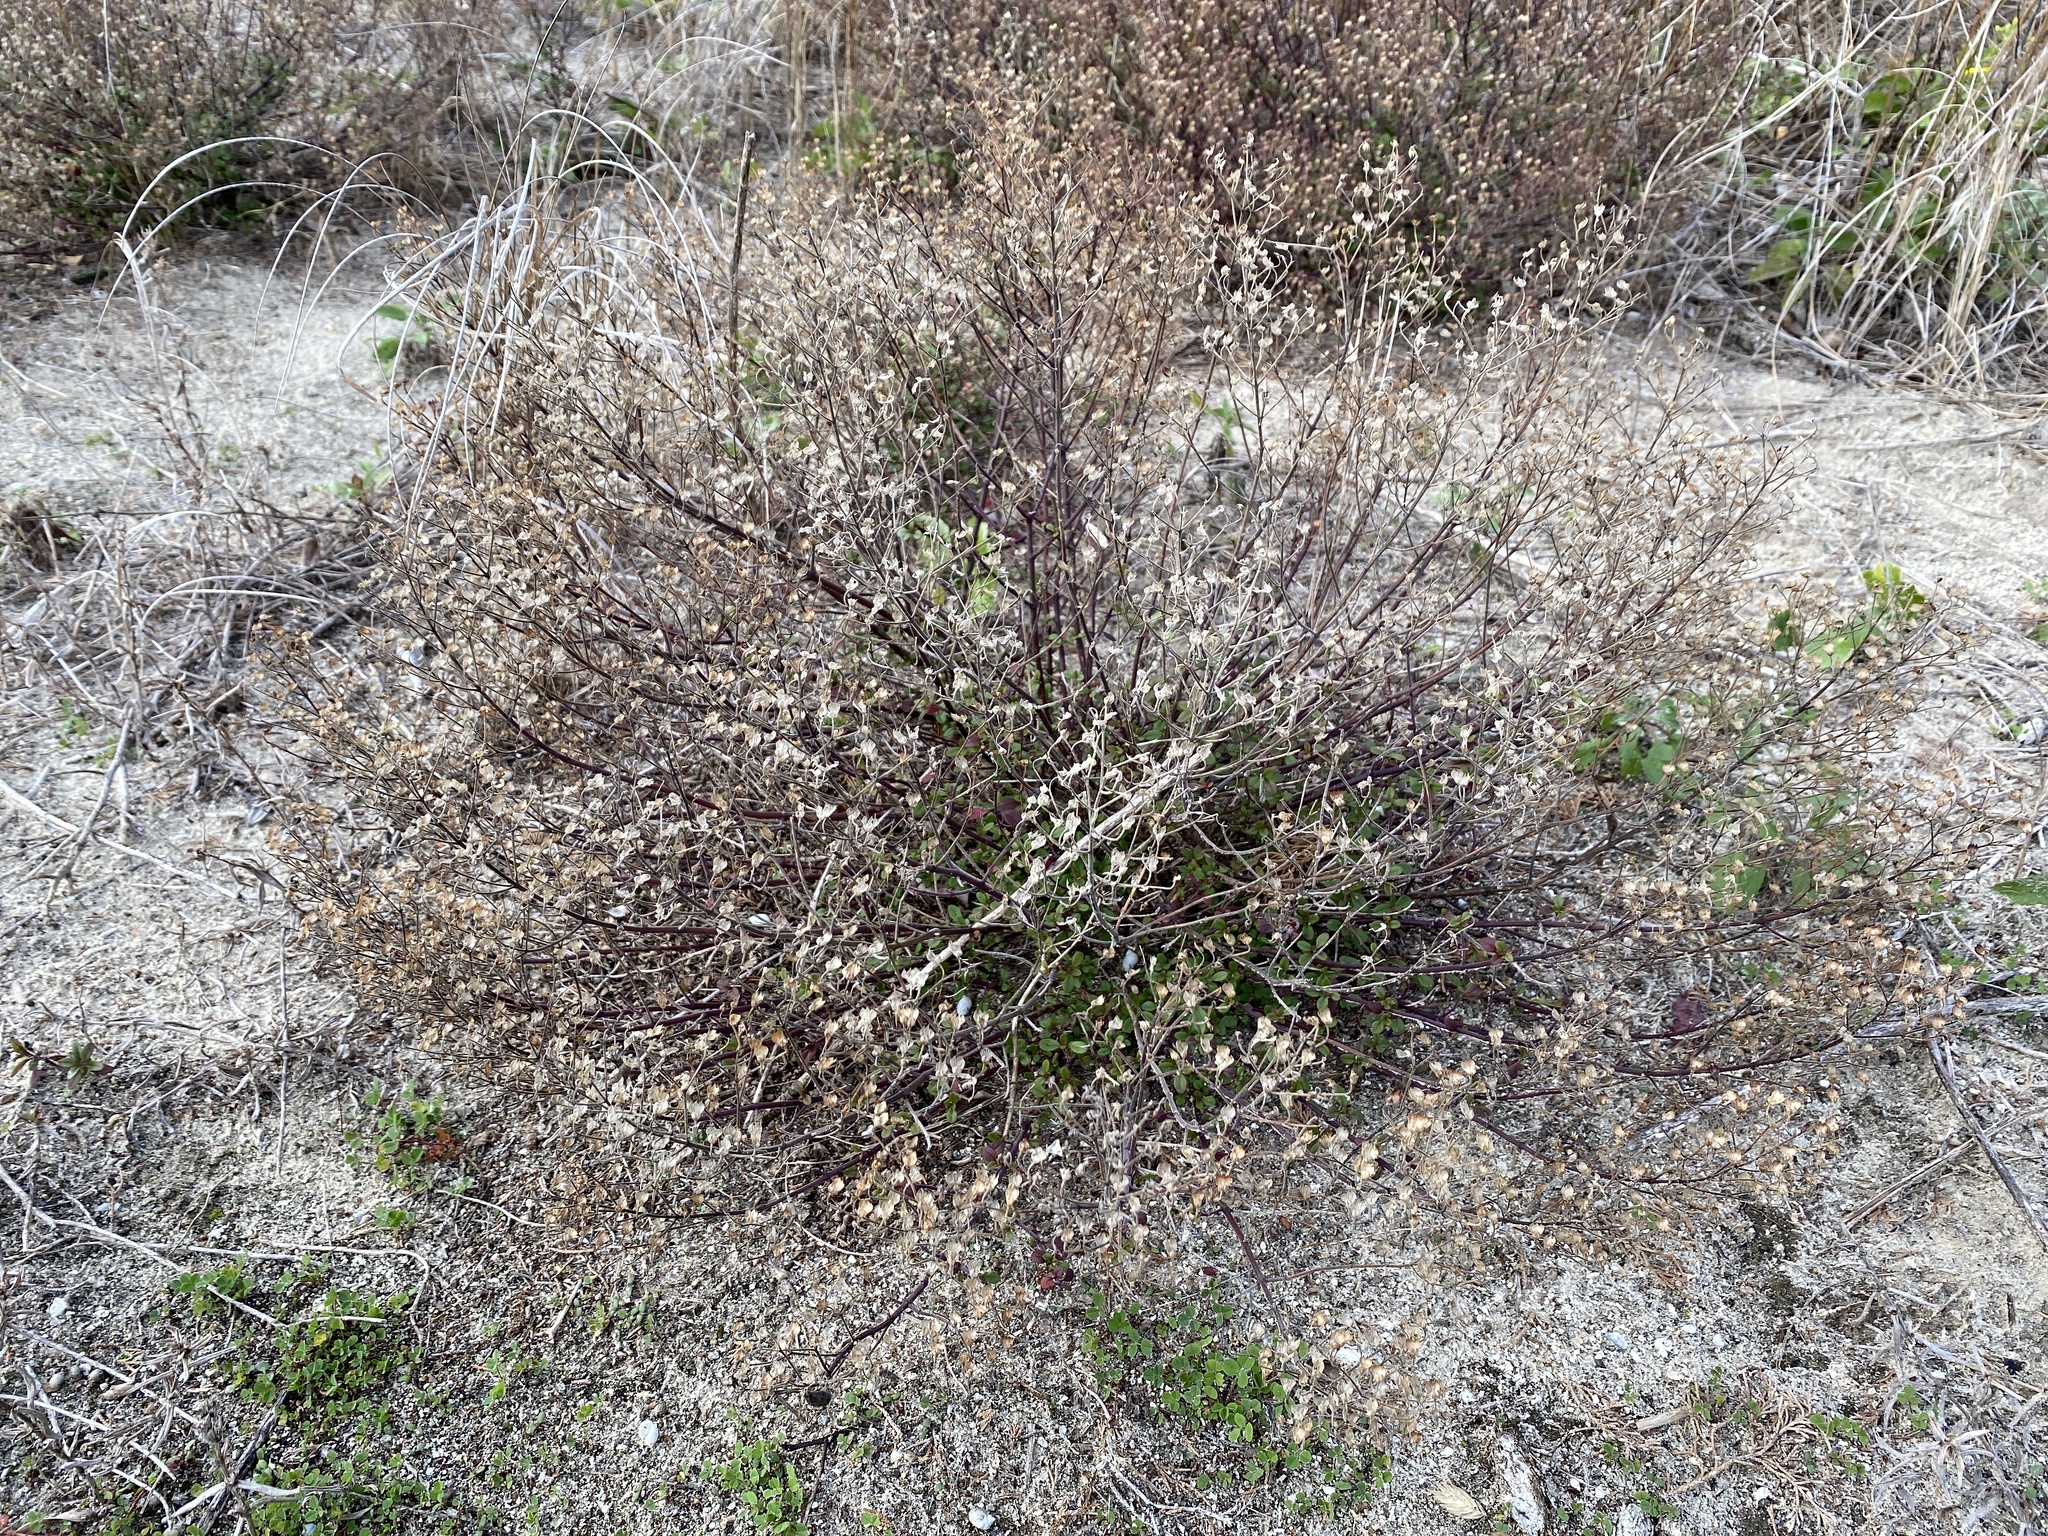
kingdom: Plantae
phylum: Tracheophyta
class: Magnoliopsida
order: Lamiales
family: Lamiaceae
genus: Trichostema
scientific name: Trichostema nesophilum
